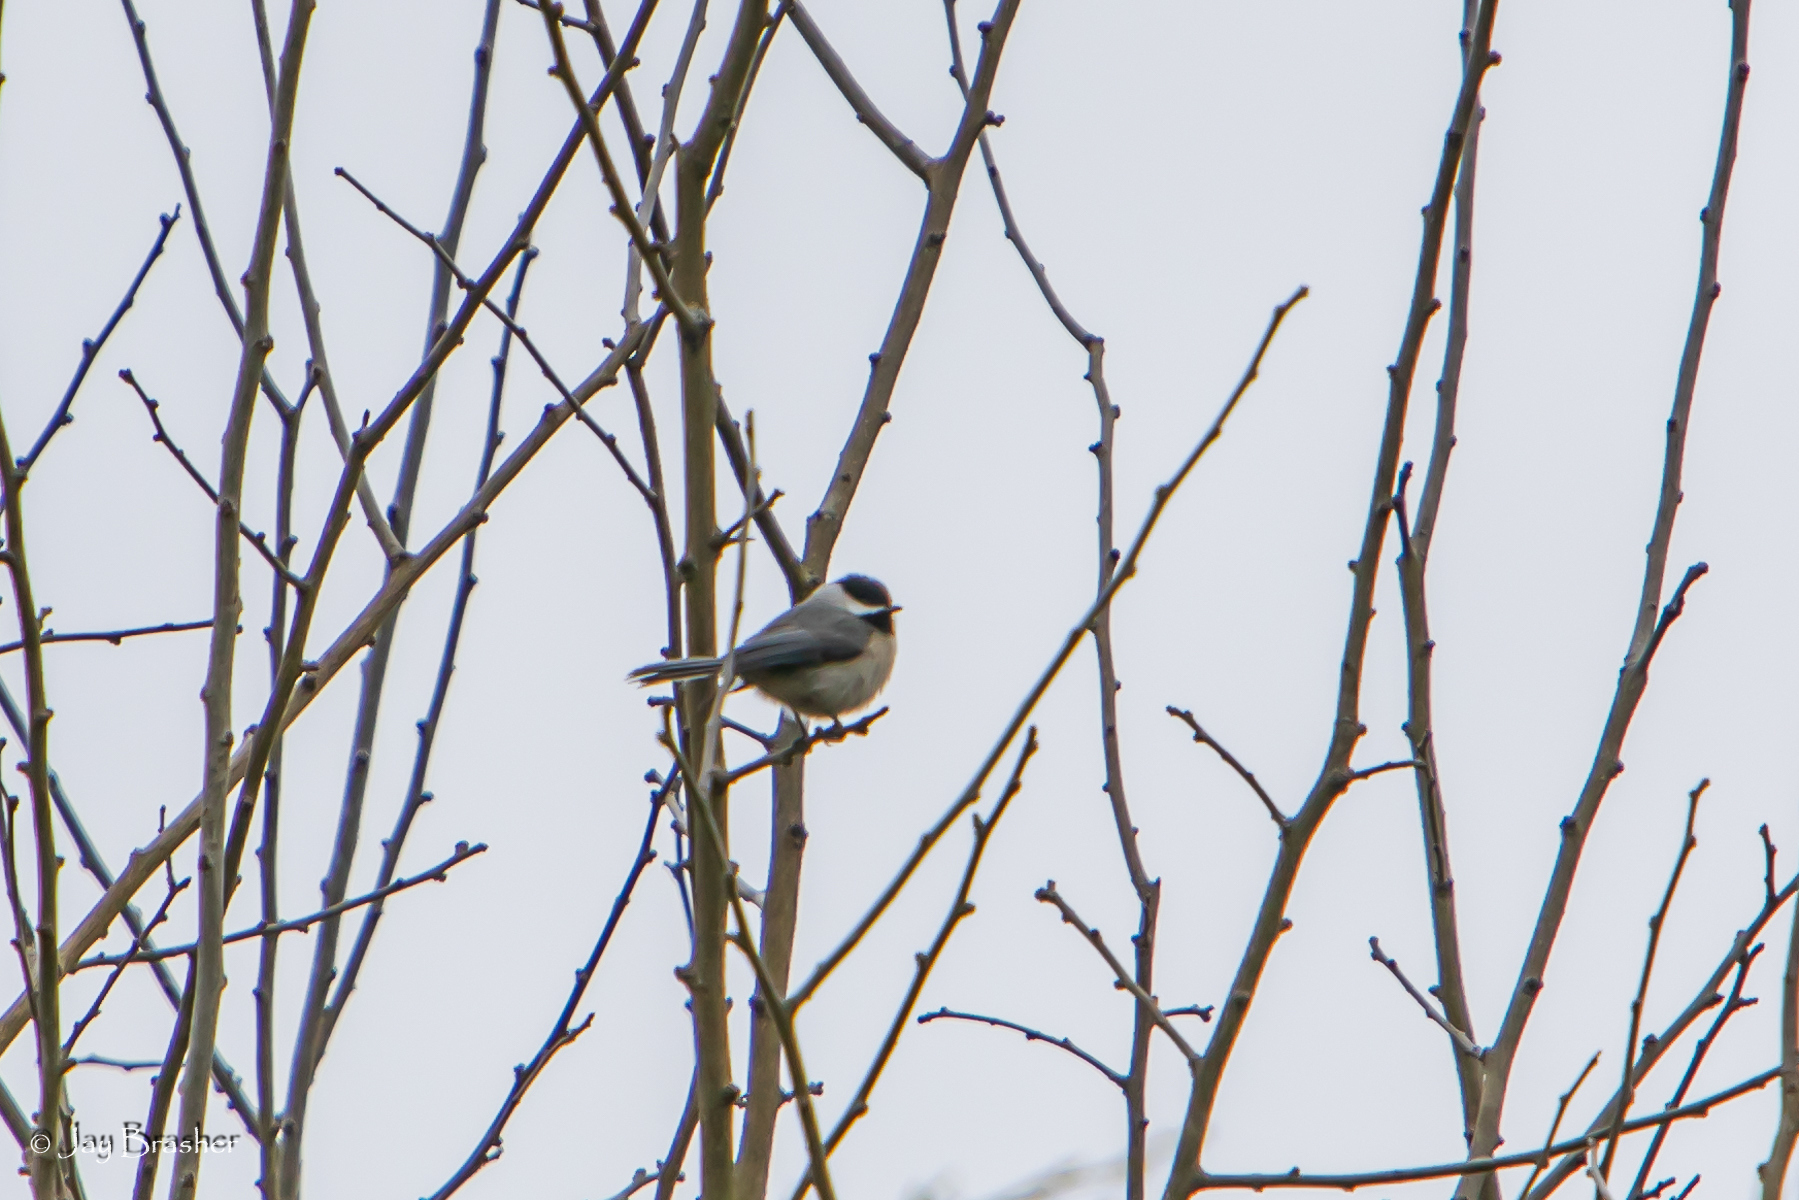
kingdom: Animalia
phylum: Chordata
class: Aves
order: Passeriformes
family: Paridae
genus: Poecile
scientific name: Poecile carolinensis
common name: Carolina chickadee
